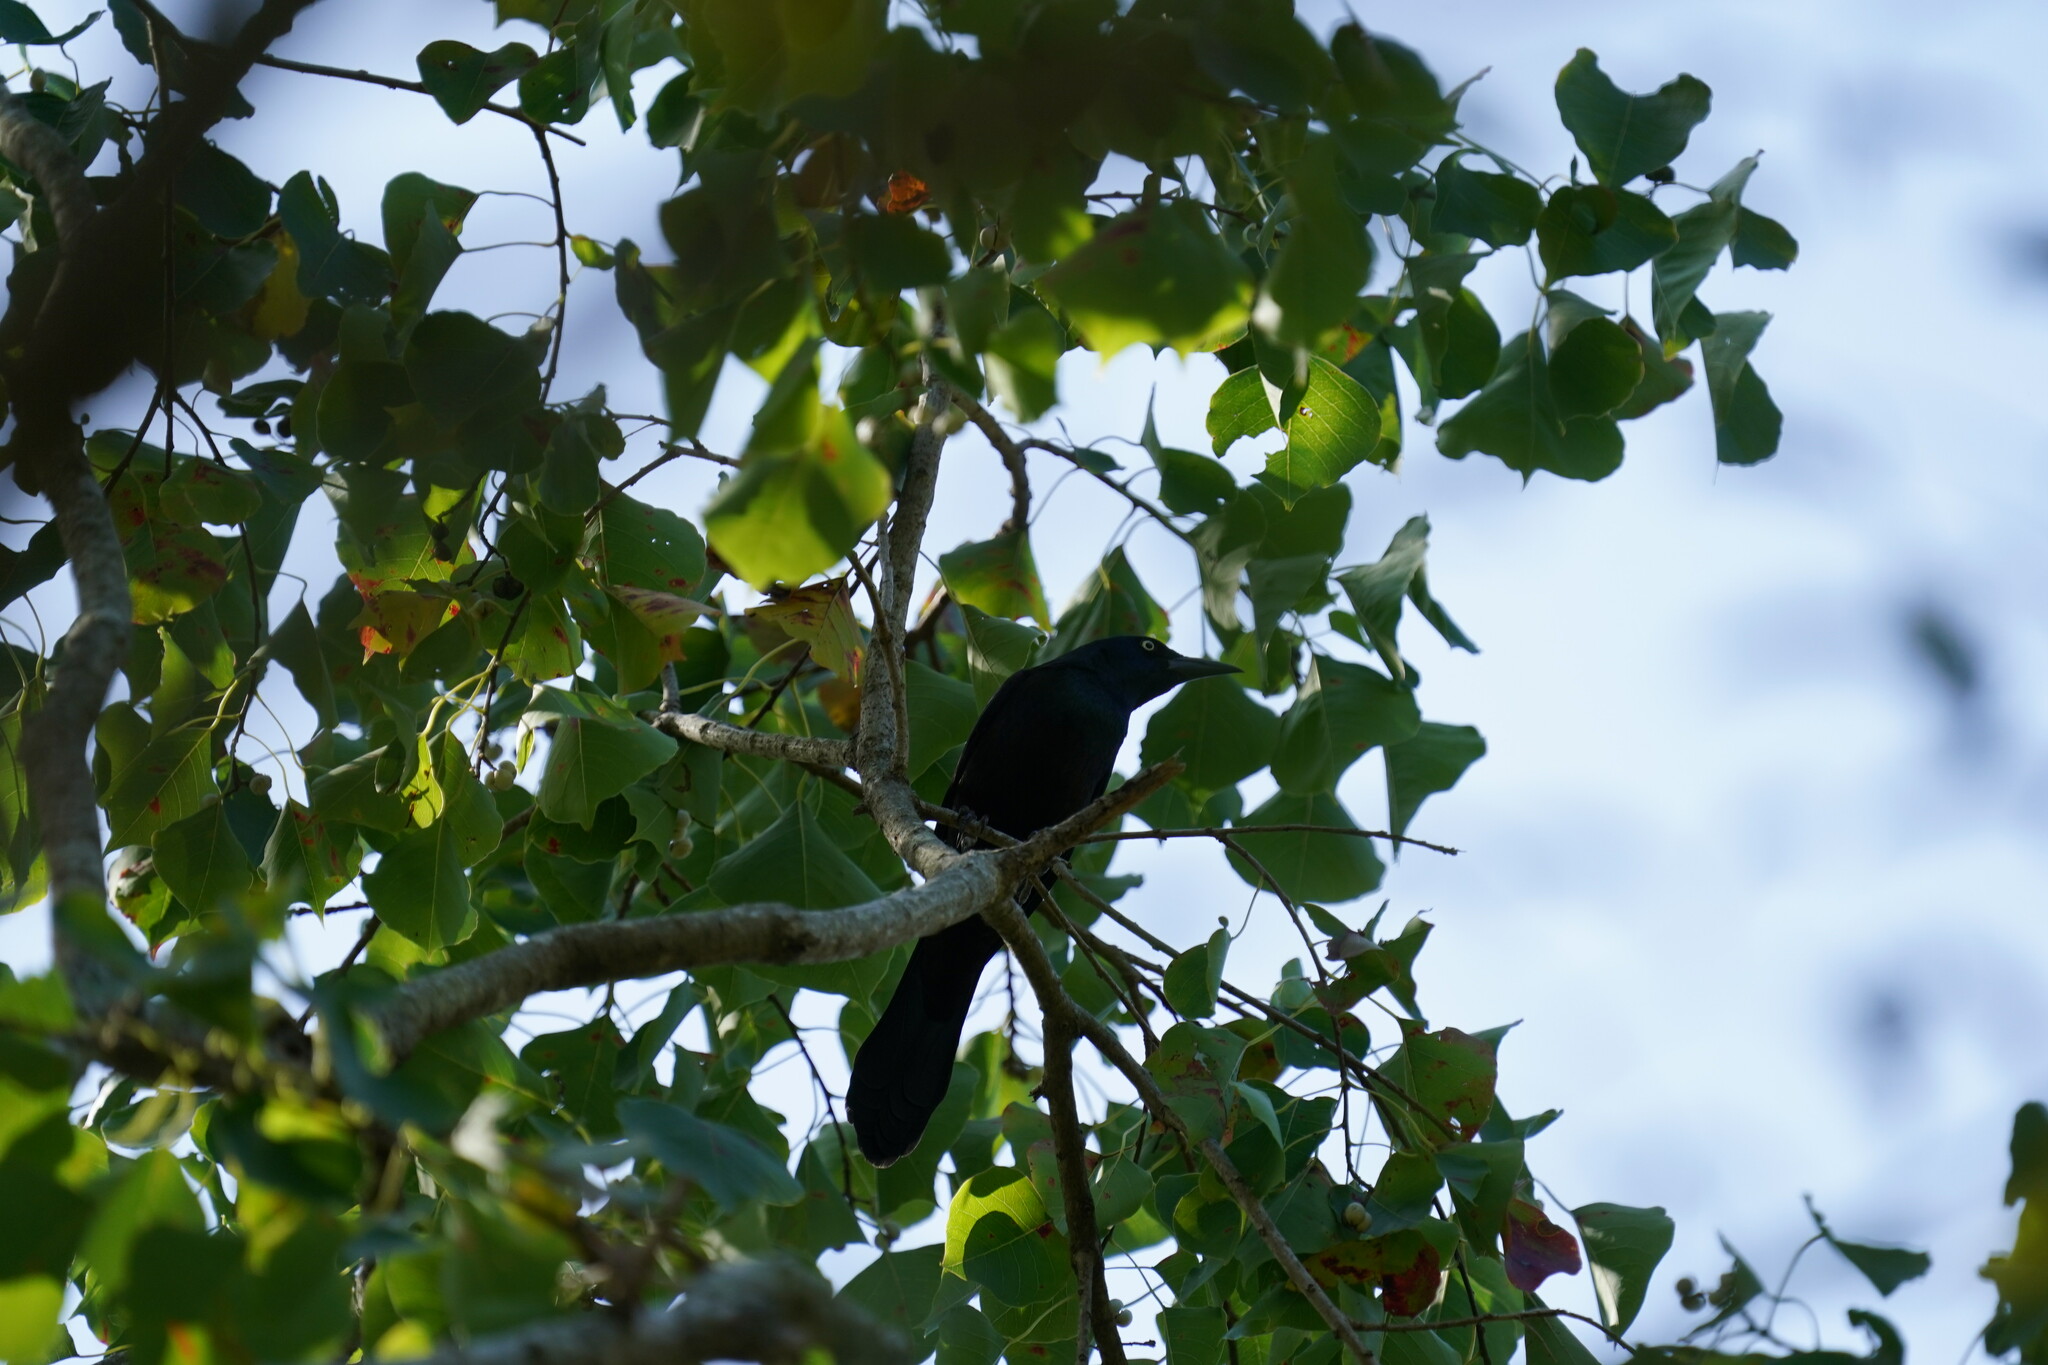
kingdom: Animalia
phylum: Chordata
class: Aves
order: Passeriformes
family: Icteridae
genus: Quiscalus
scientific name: Quiscalus quiscula
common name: Common grackle
